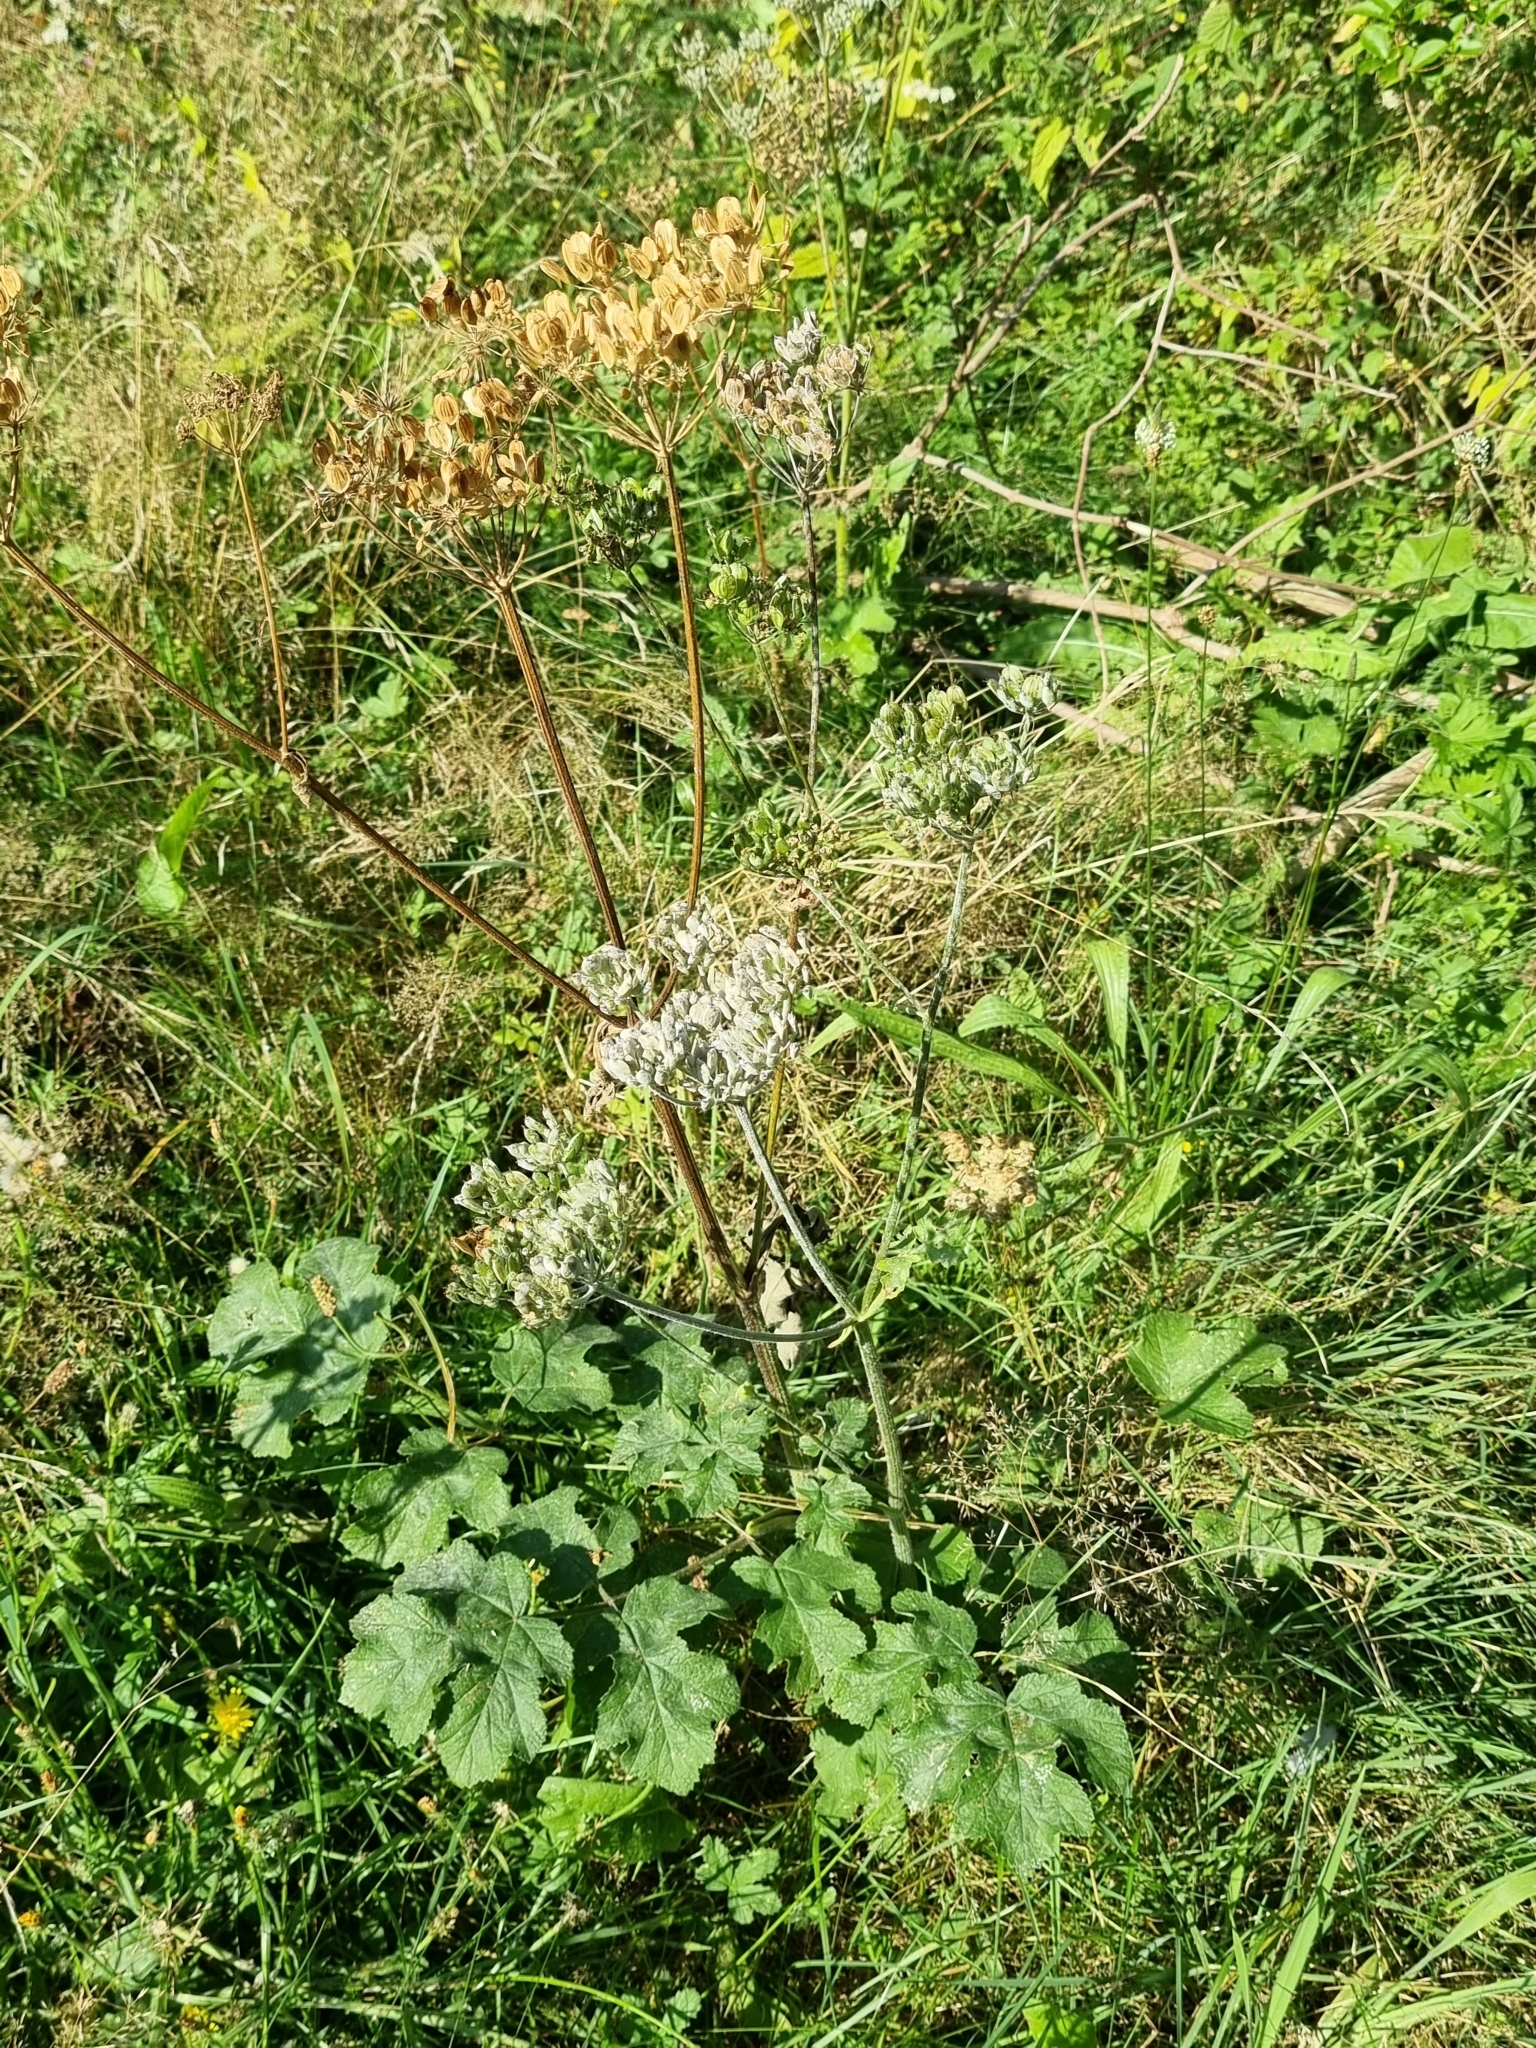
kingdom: Plantae
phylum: Tracheophyta
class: Magnoliopsida
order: Apiales
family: Apiaceae
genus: Heracleum
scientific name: Heracleum sphondylium
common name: Hogweed
